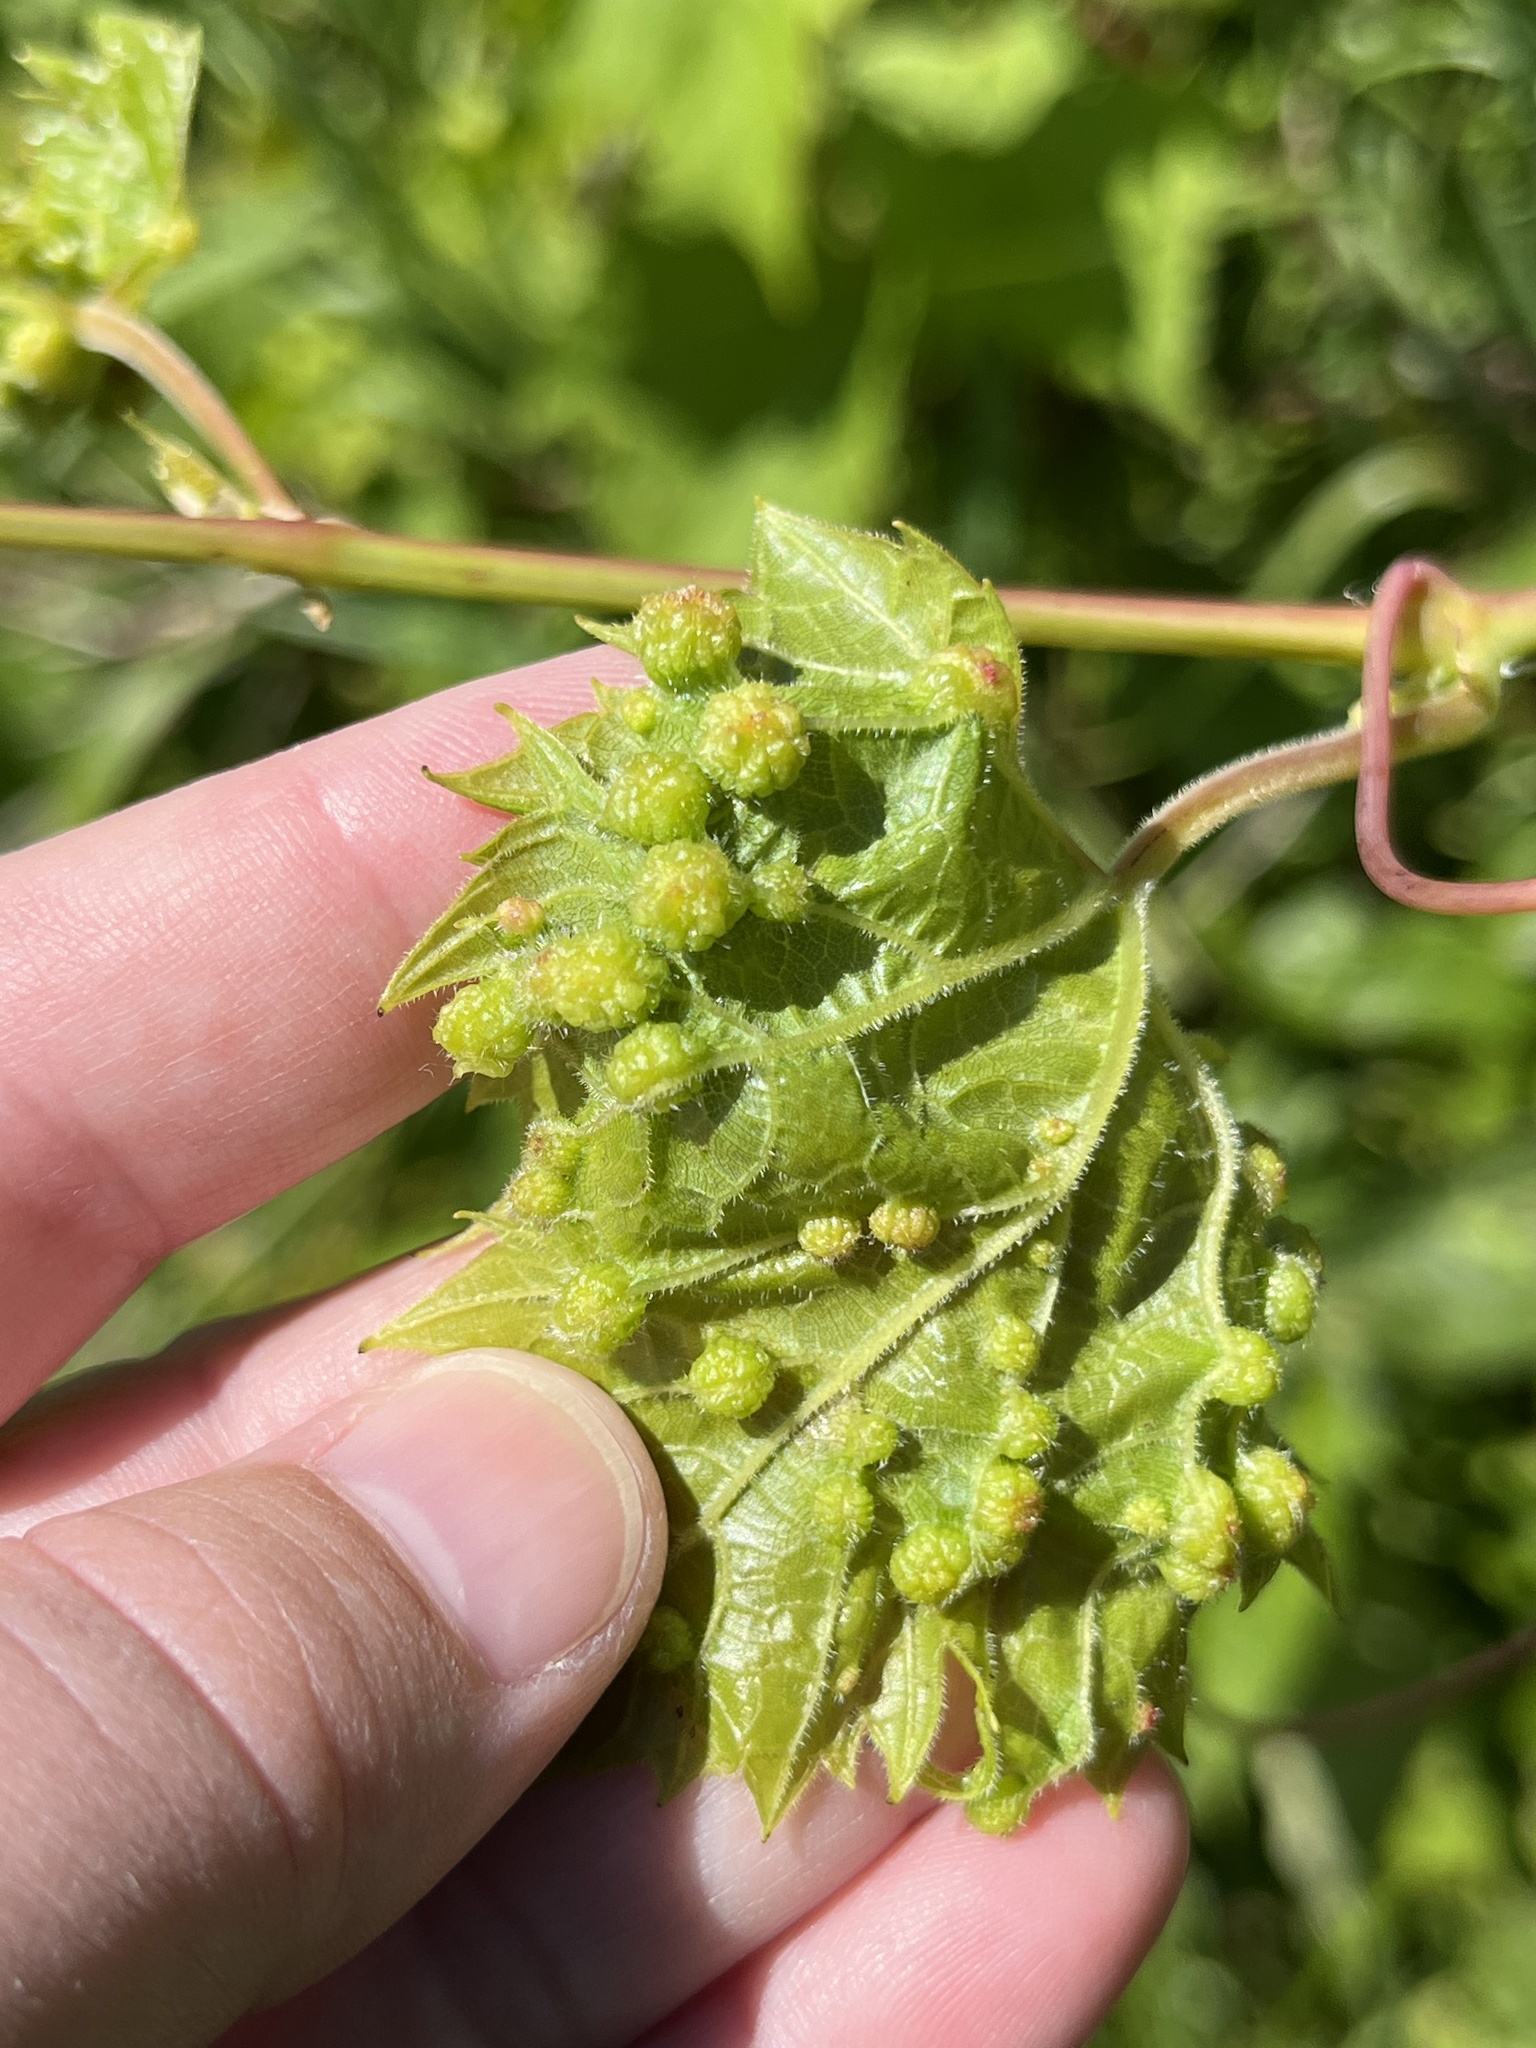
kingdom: Animalia
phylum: Arthropoda
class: Insecta
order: Hemiptera
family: Phylloxeridae
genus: Daktulosphaira
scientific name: Daktulosphaira vitifoliae
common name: Grape phylloxera
